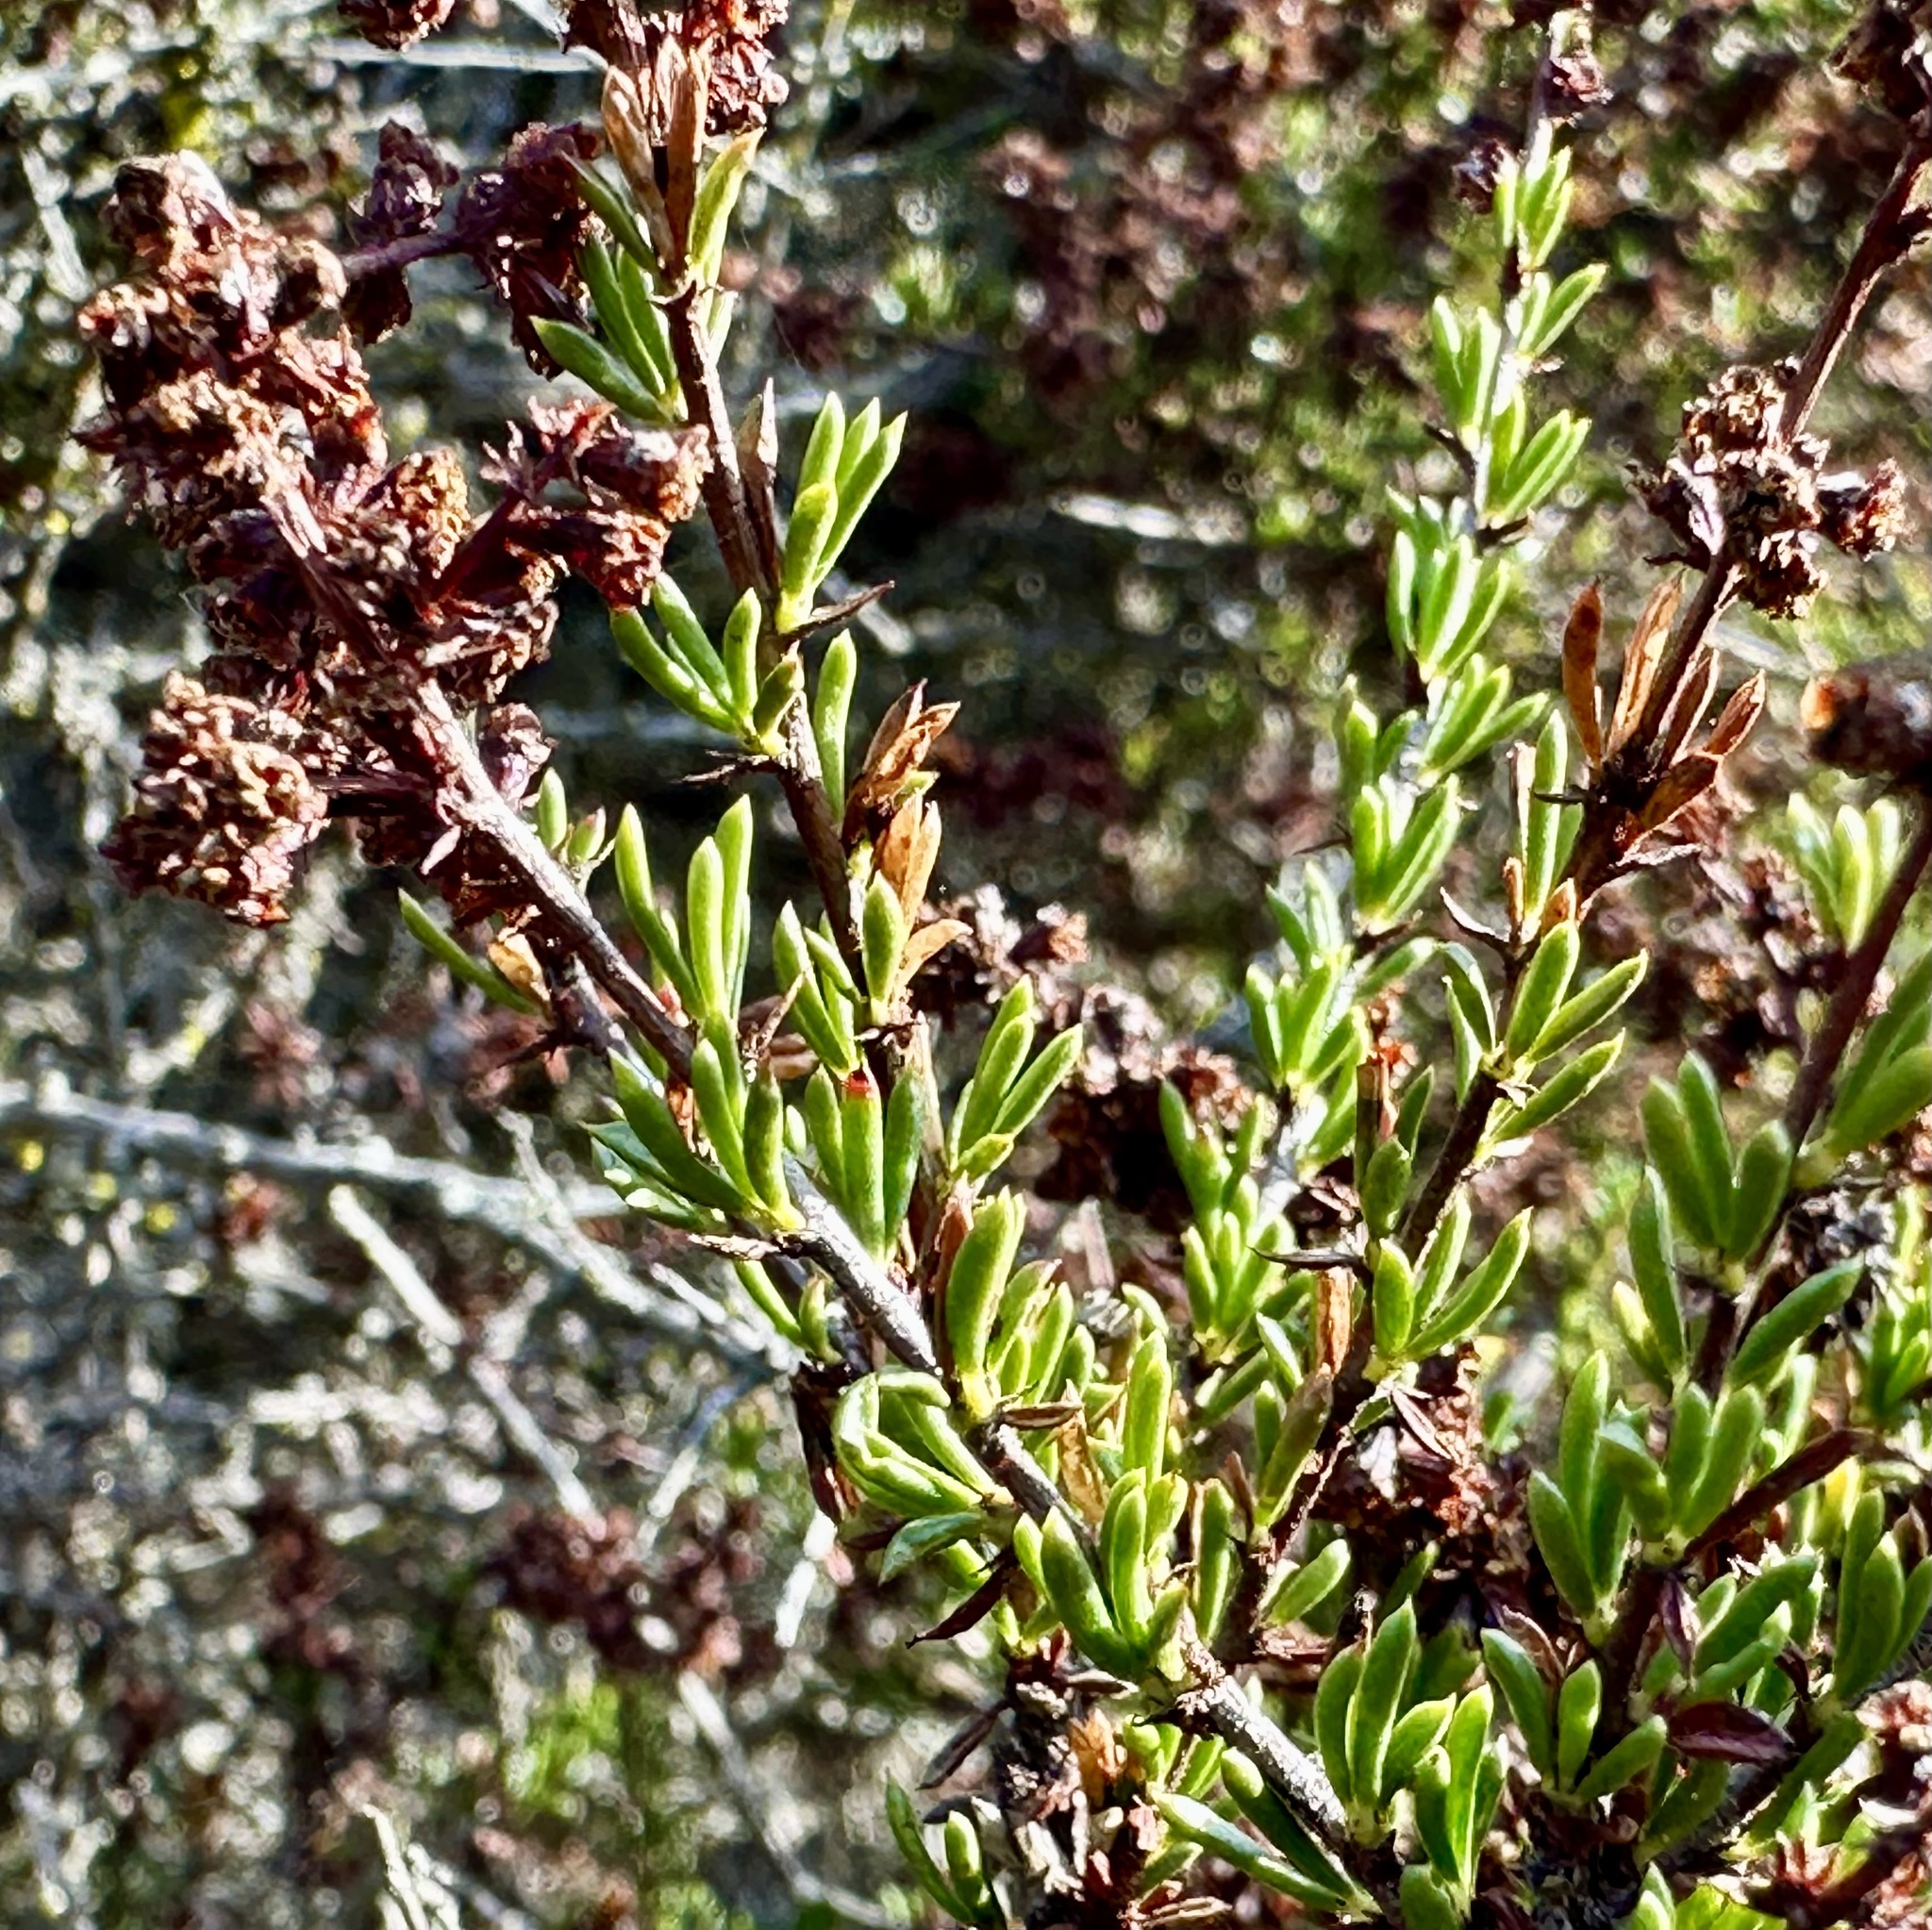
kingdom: Plantae
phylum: Tracheophyta
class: Magnoliopsida
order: Rosales
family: Rosaceae
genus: Adenostoma
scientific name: Adenostoma fasciculatum
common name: Chamise
